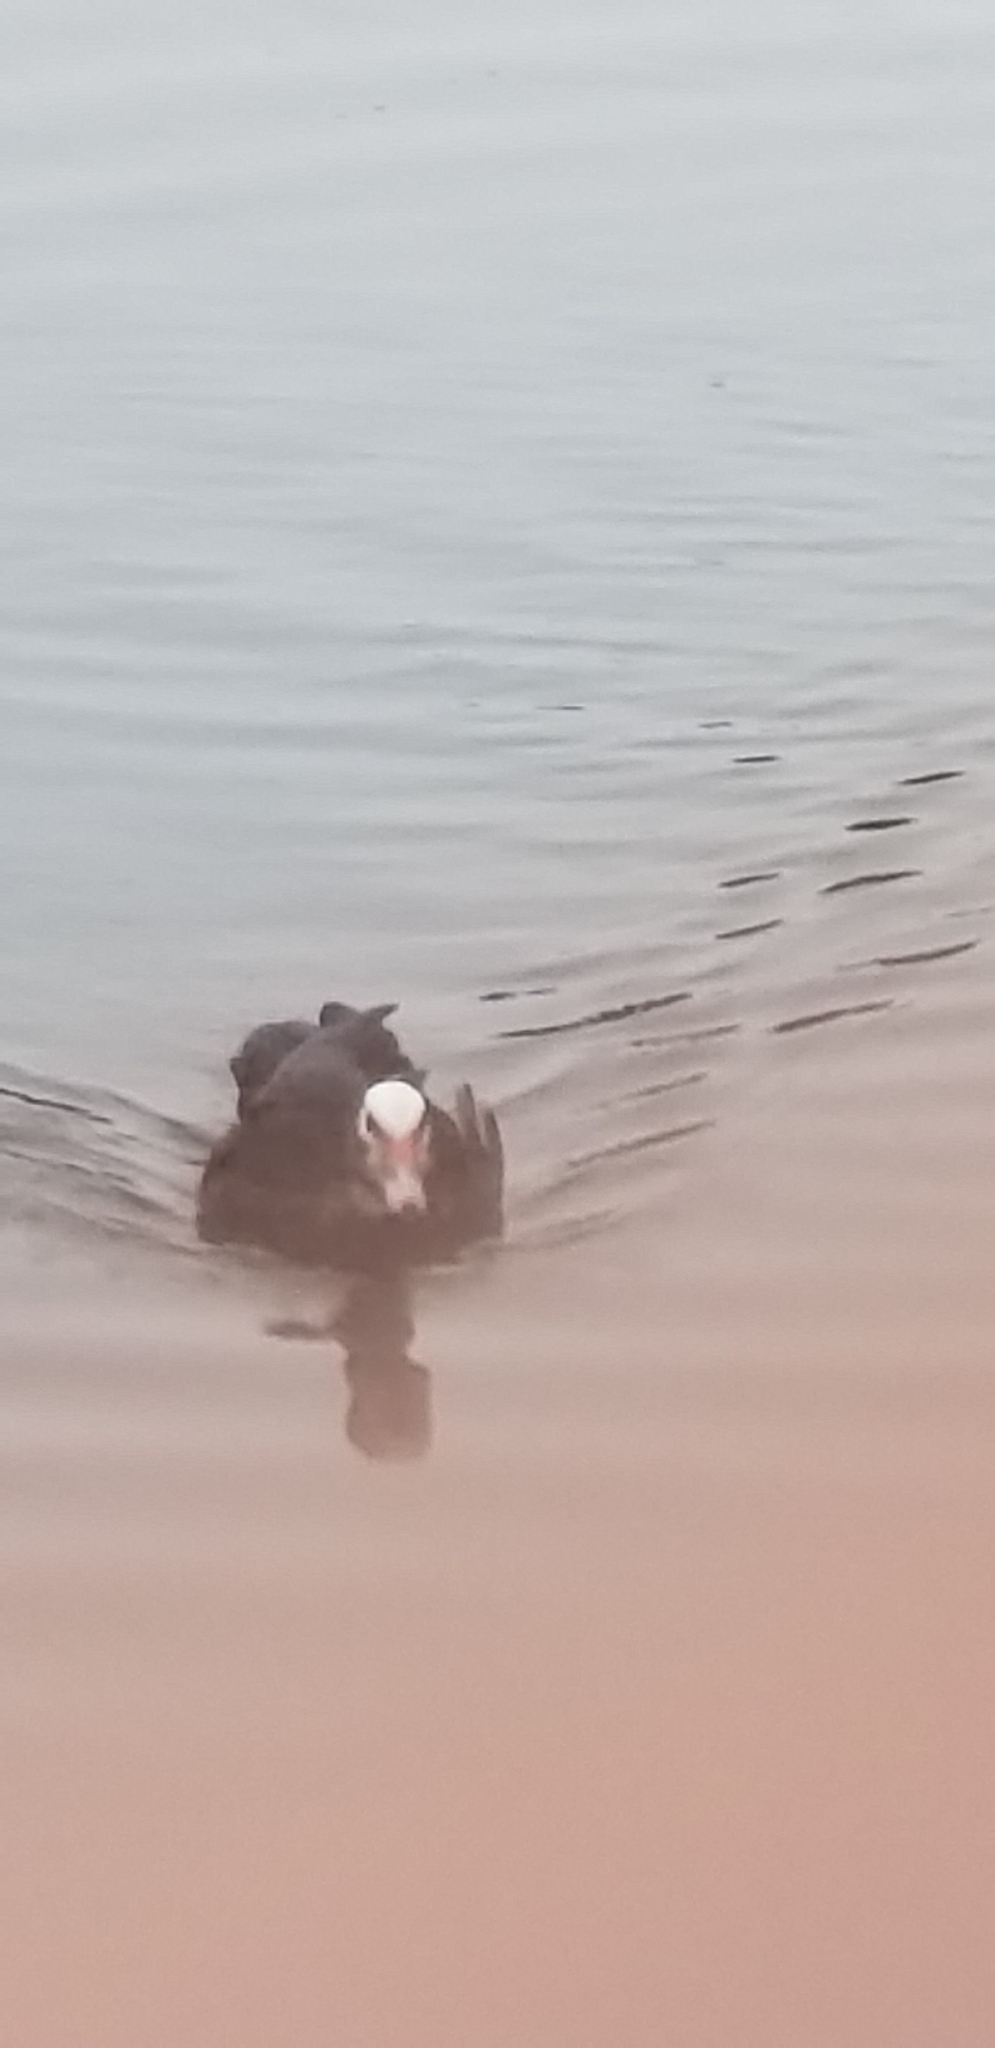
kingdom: Animalia
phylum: Chordata
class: Aves
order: Anseriformes
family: Anatidae
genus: Cairina
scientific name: Cairina moschata
